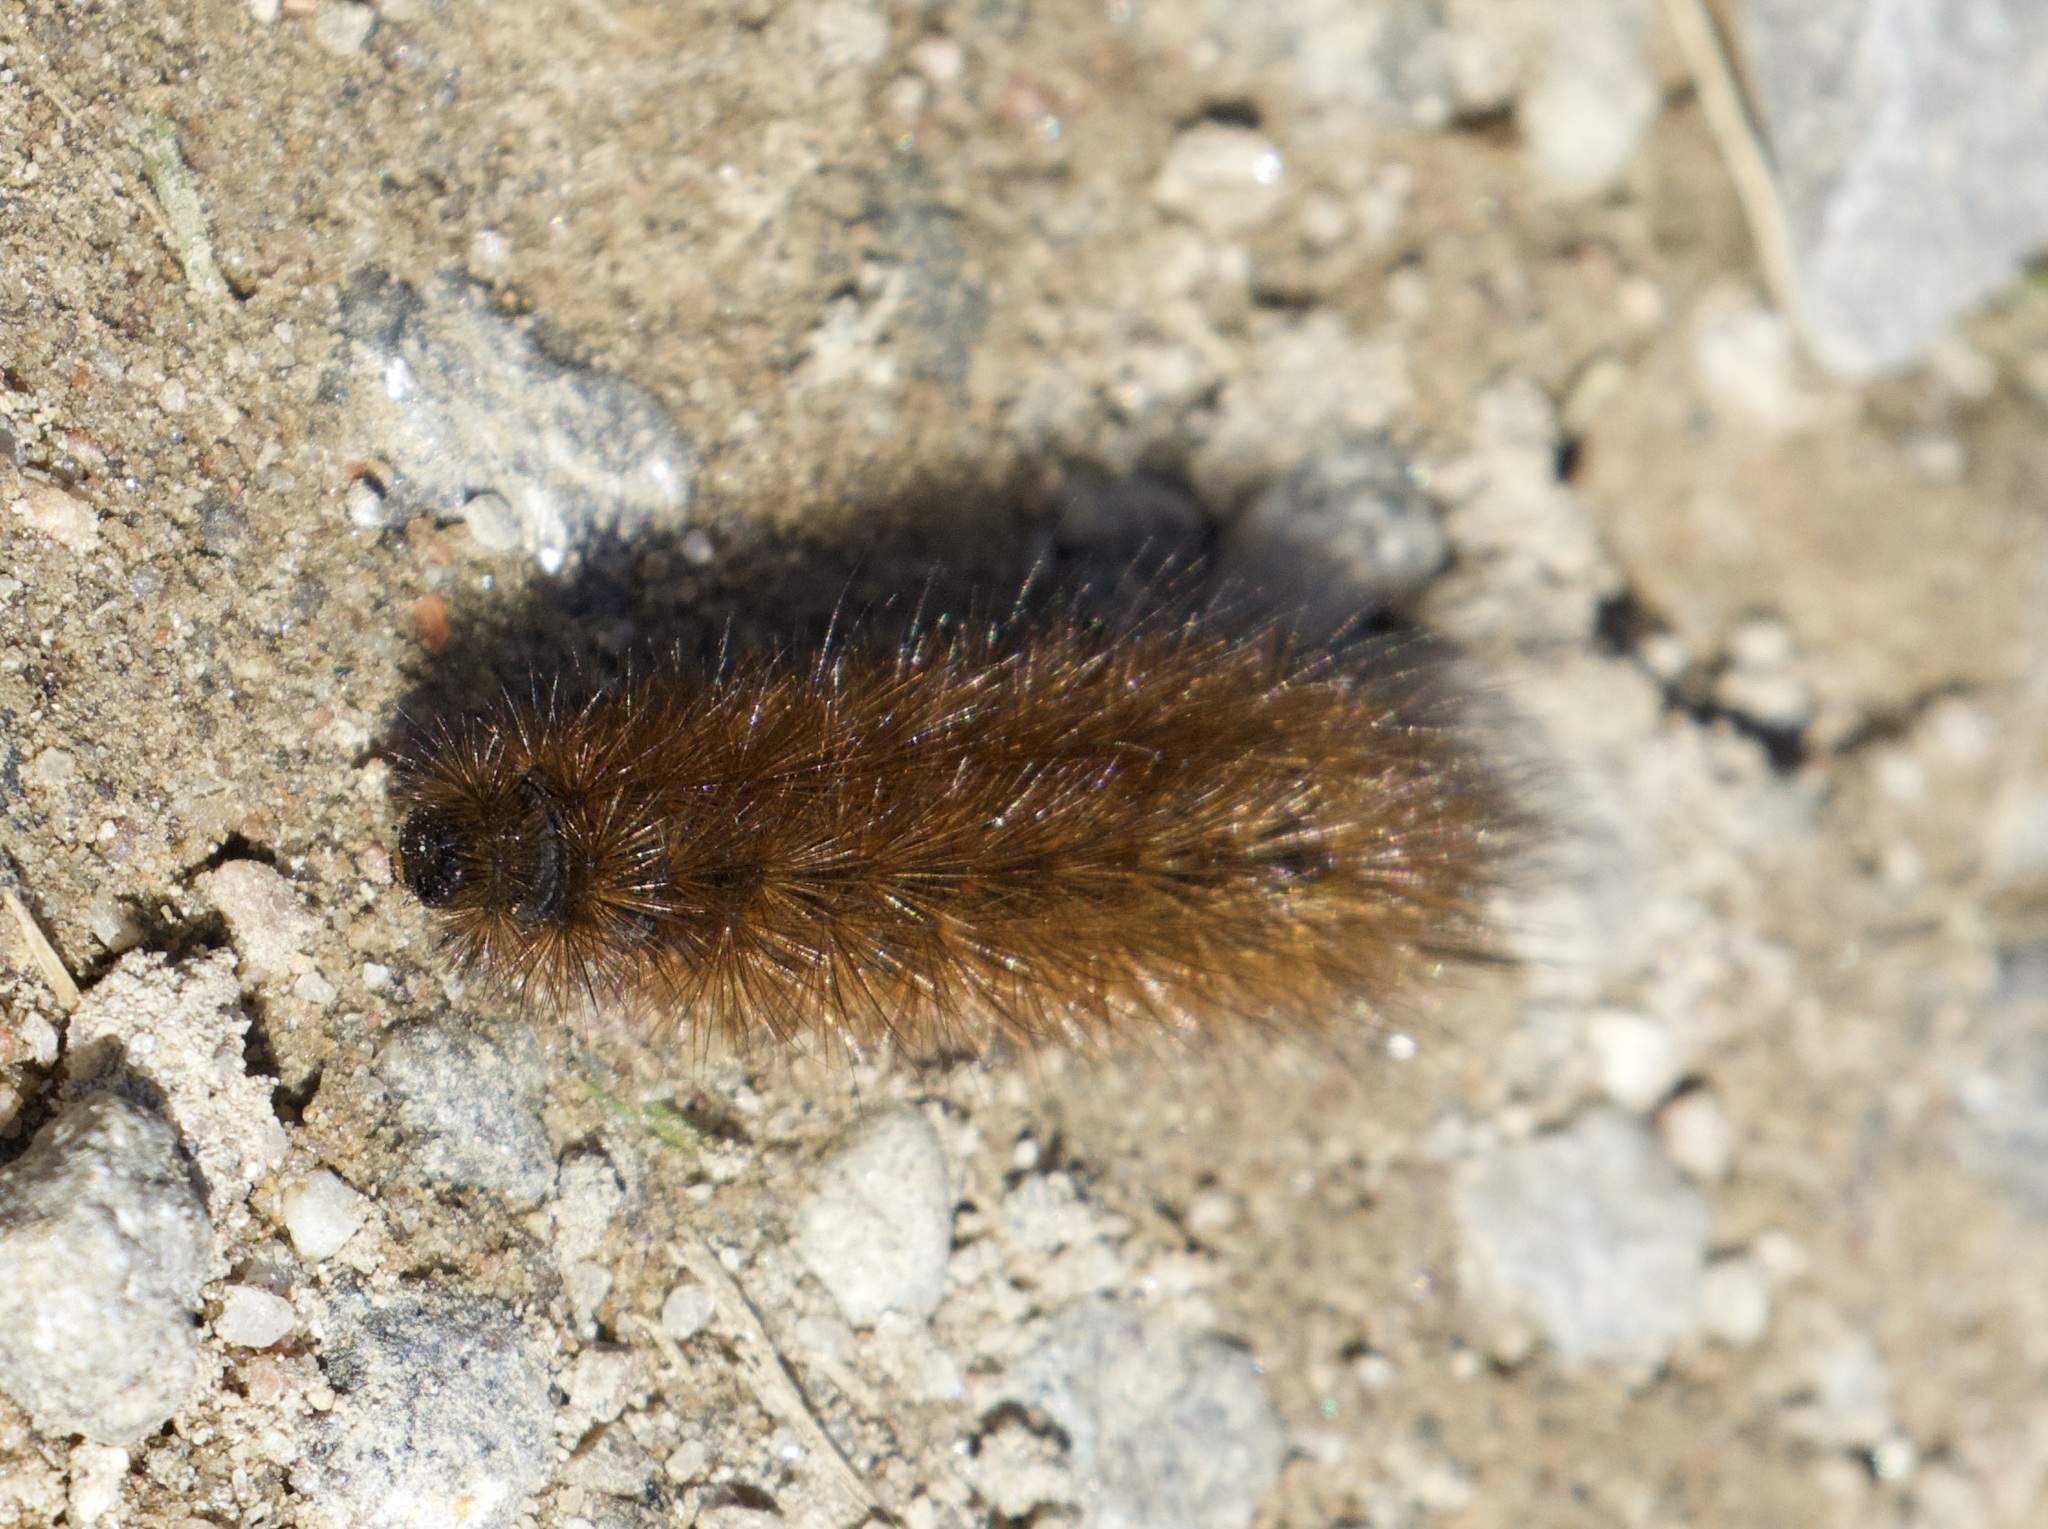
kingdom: Animalia
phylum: Arthropoda
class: Insecta
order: Lepidoptera
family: Erebidae
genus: Phragmatobia
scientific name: Phragmatobia fuliginosa
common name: Ruby tiger
